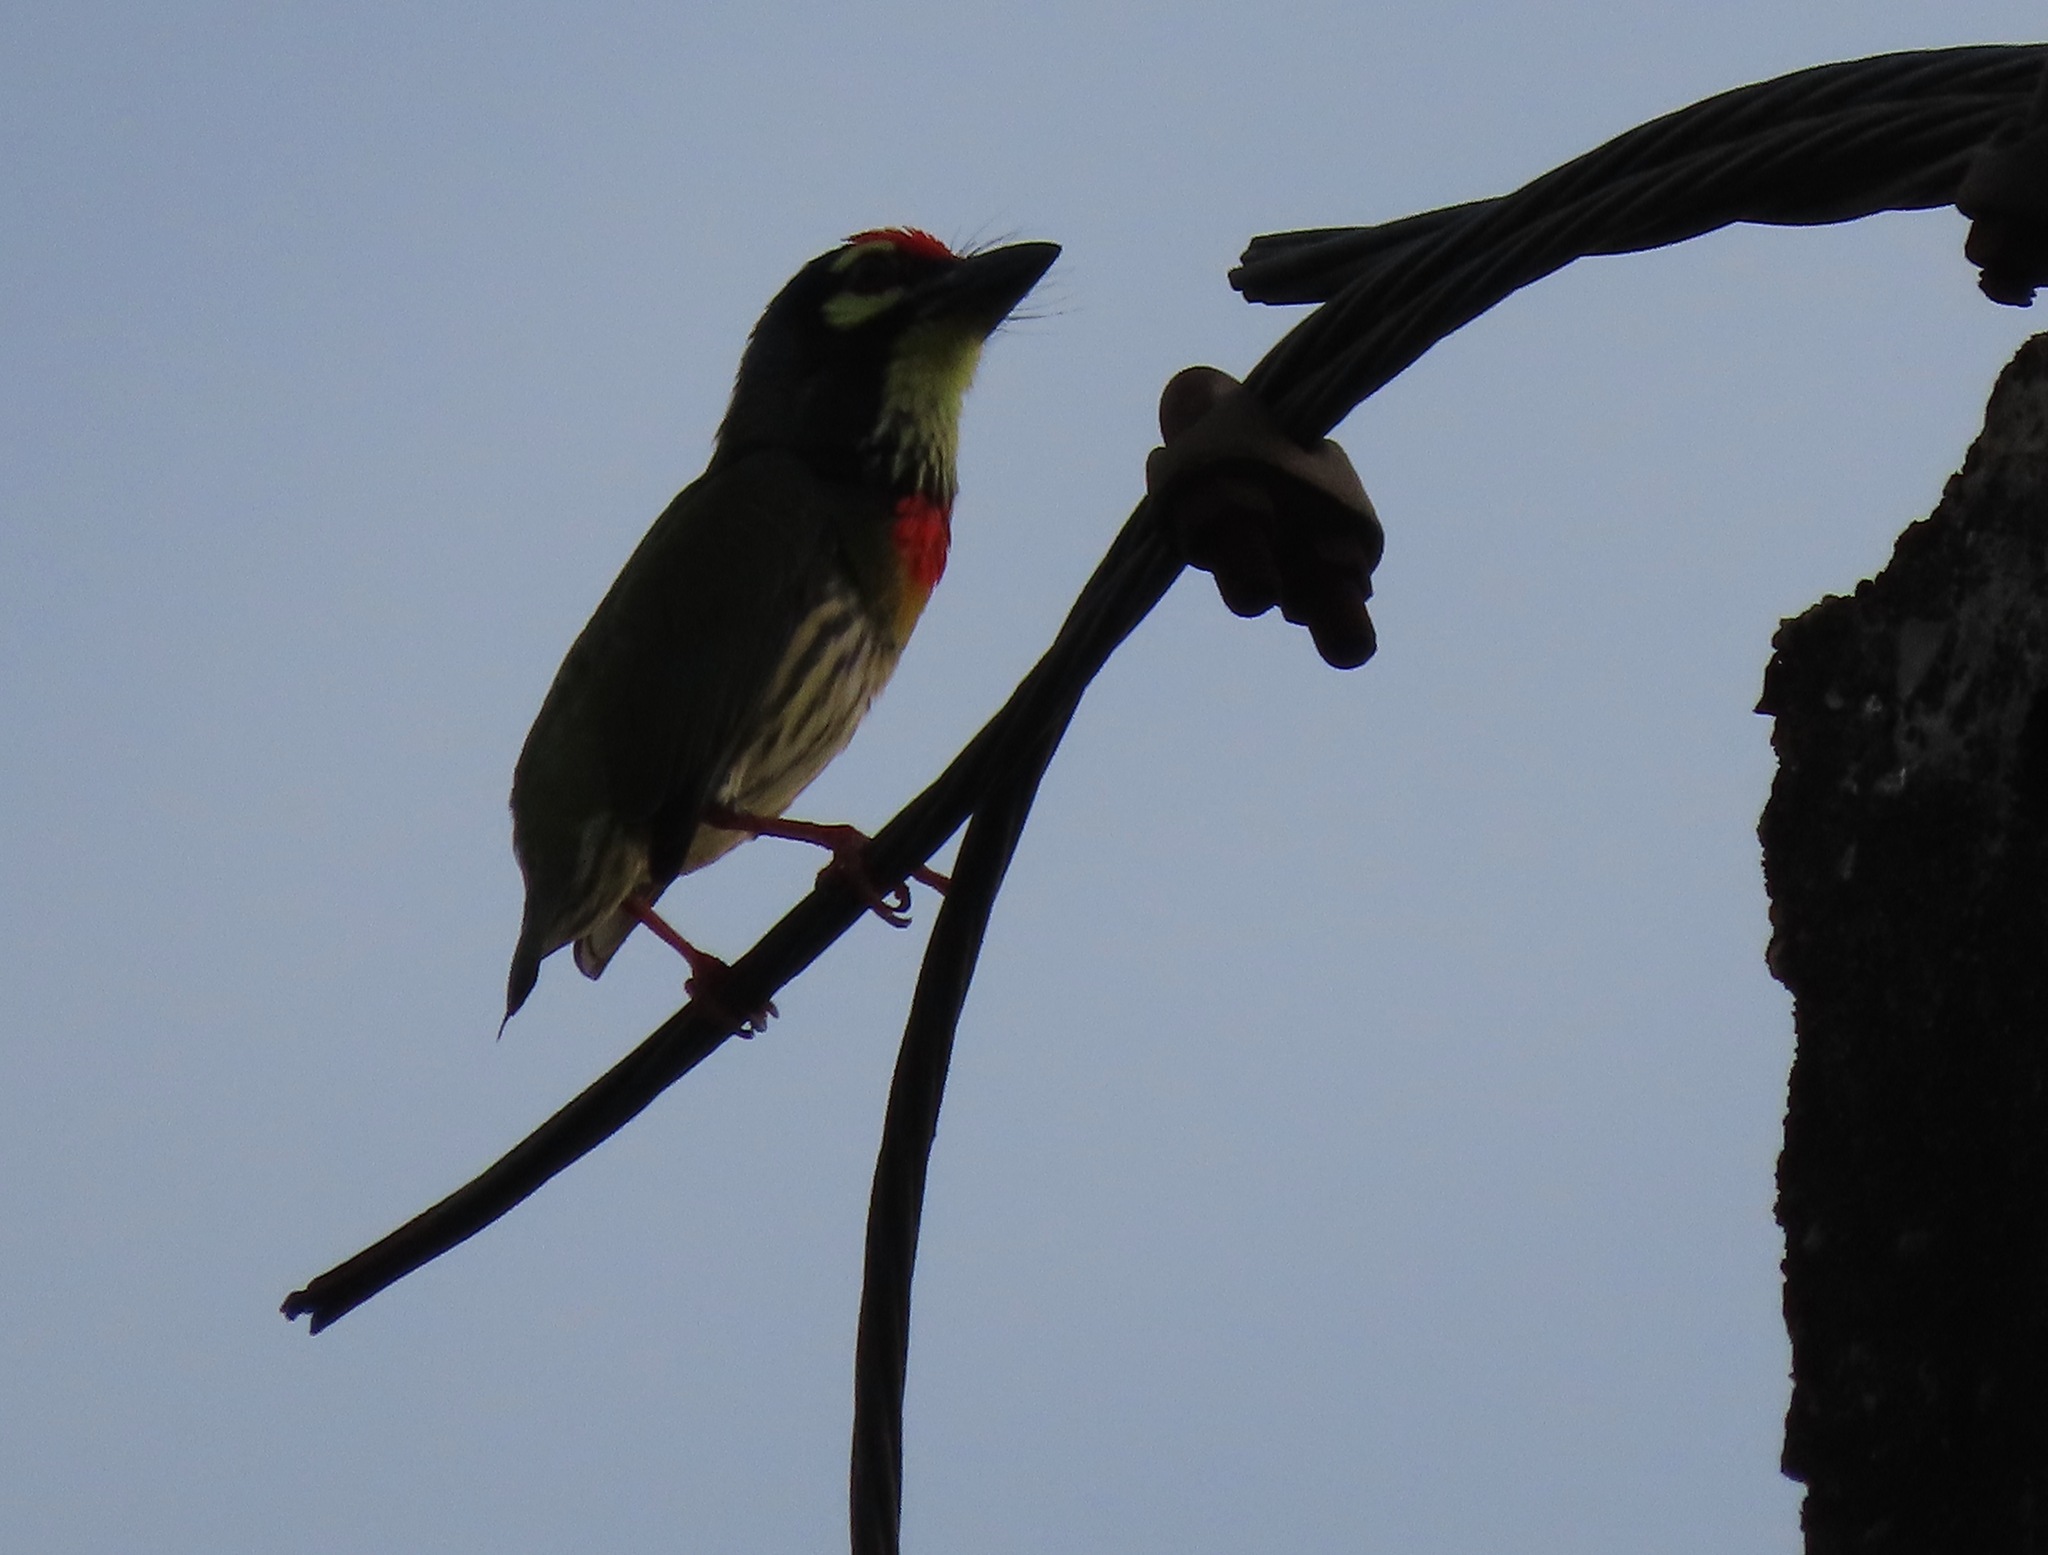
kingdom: Animalia
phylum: Chordata
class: Aves
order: Piciformes
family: Megalaimidae
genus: Psilopogon
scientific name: Psilopogon haemacephalus
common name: Coppersmith barbet
